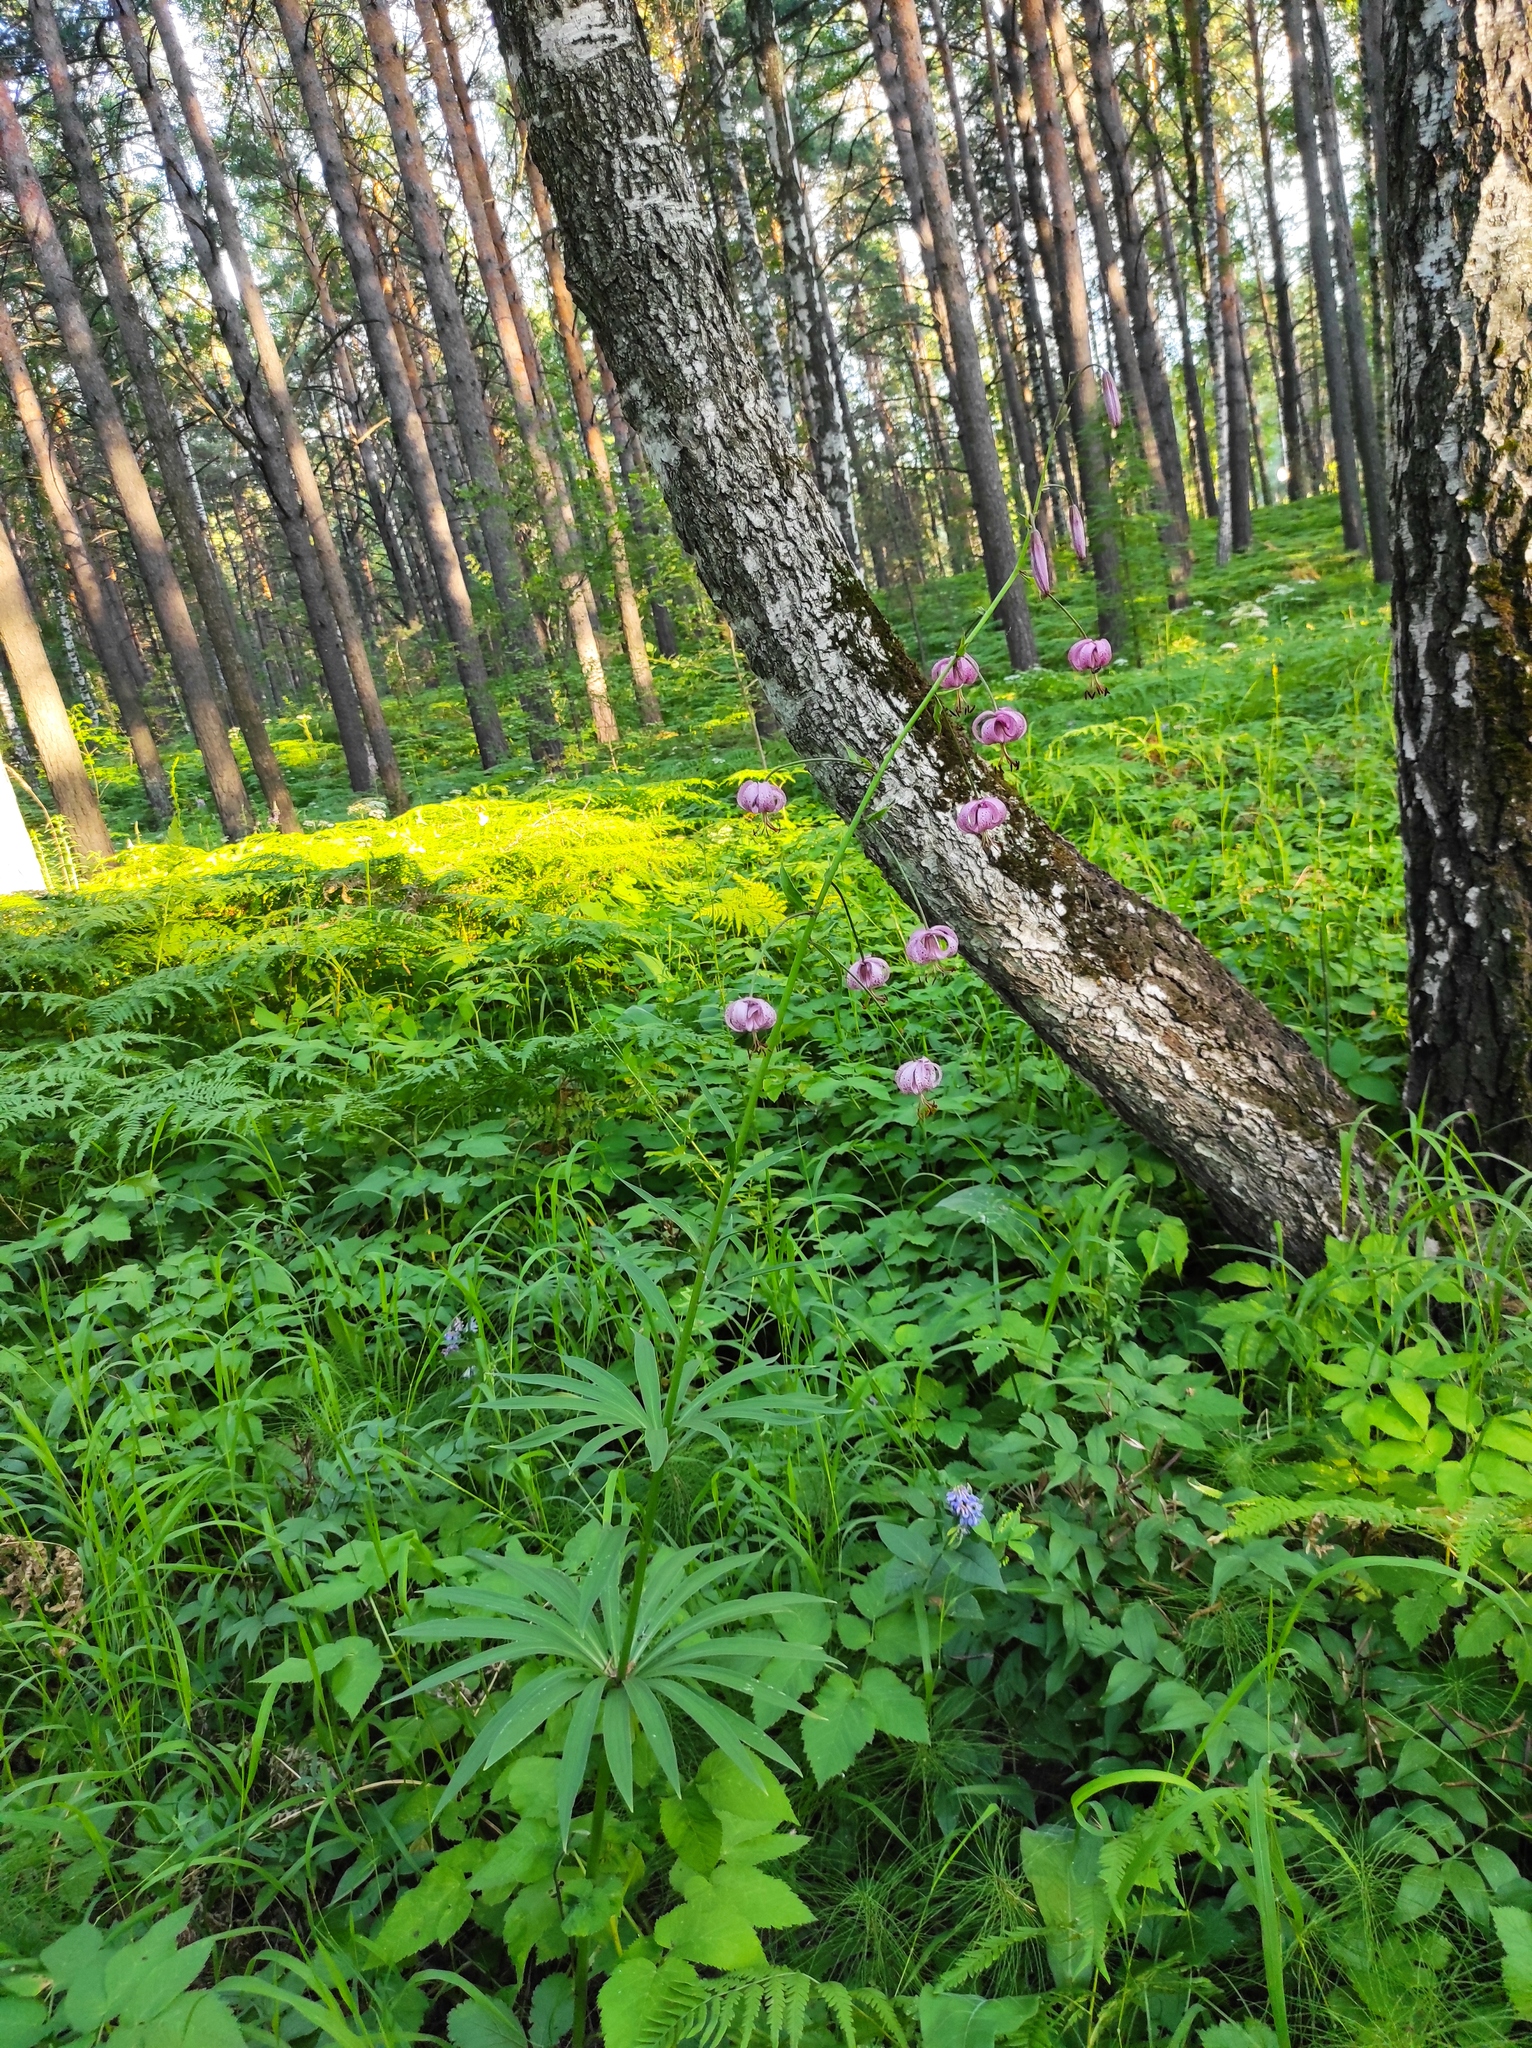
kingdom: Plantae
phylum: Tracheophyta
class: Liliopsida
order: Liliales
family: Liliaceae
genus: Lilium
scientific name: Lilium martagon
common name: Martagon lily
